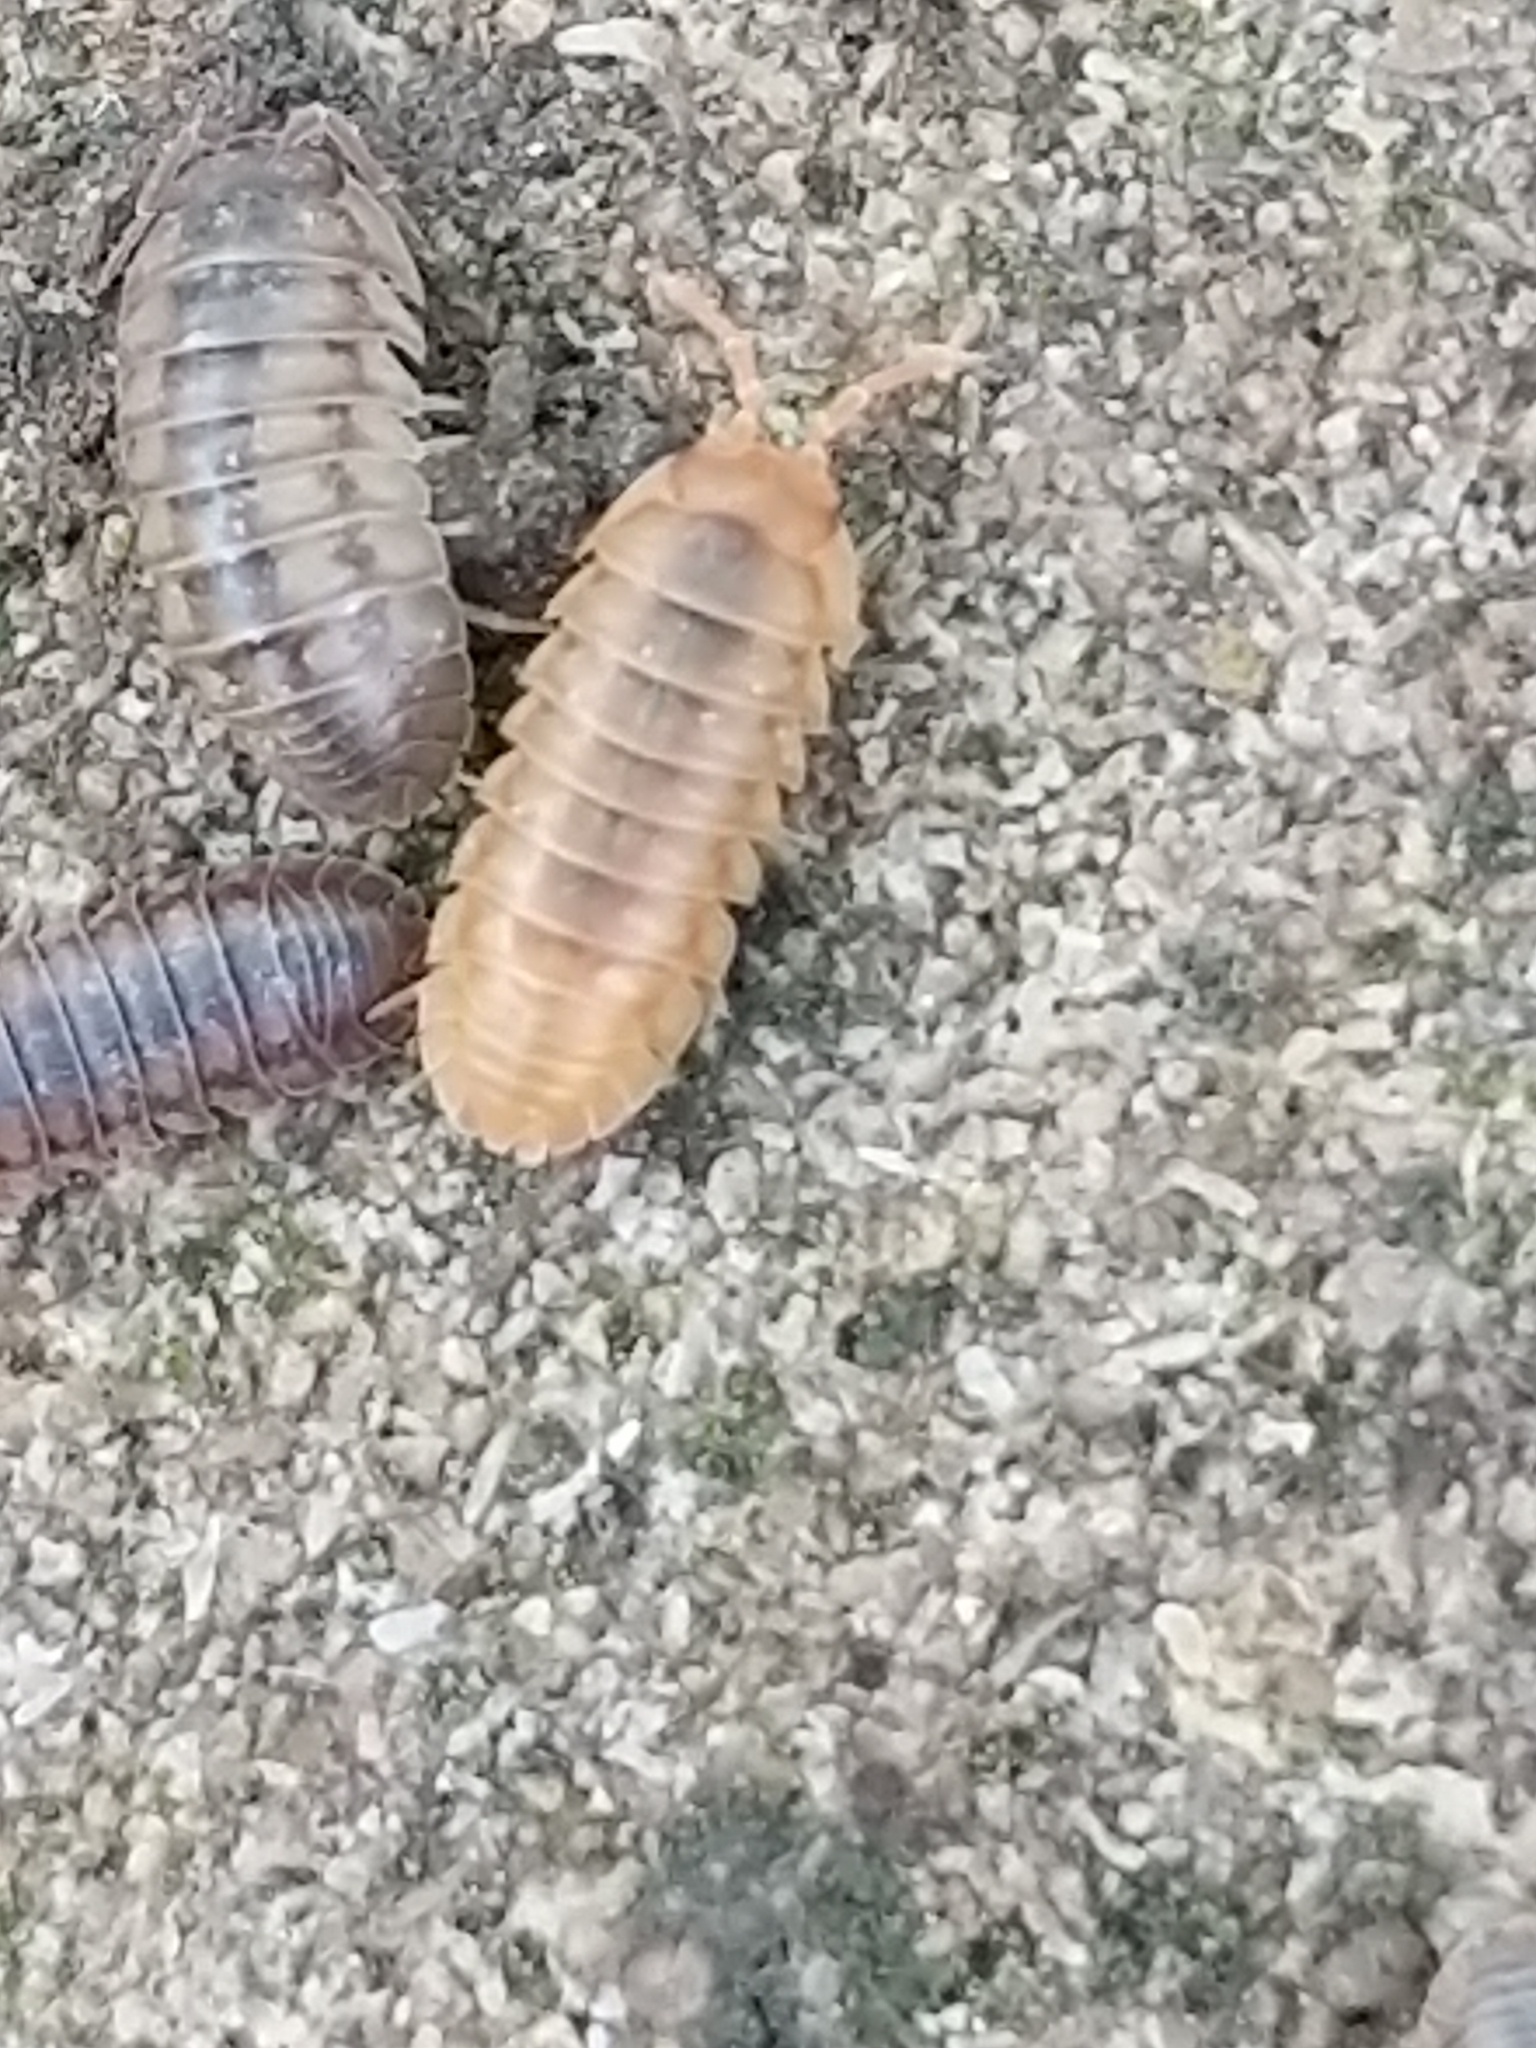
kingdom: Animalia
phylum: Arthropoda
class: Malacostraca
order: Isopoda
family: Armadillidiidae
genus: Armadillidium
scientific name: Armadillidium nasatum
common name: Isopod
